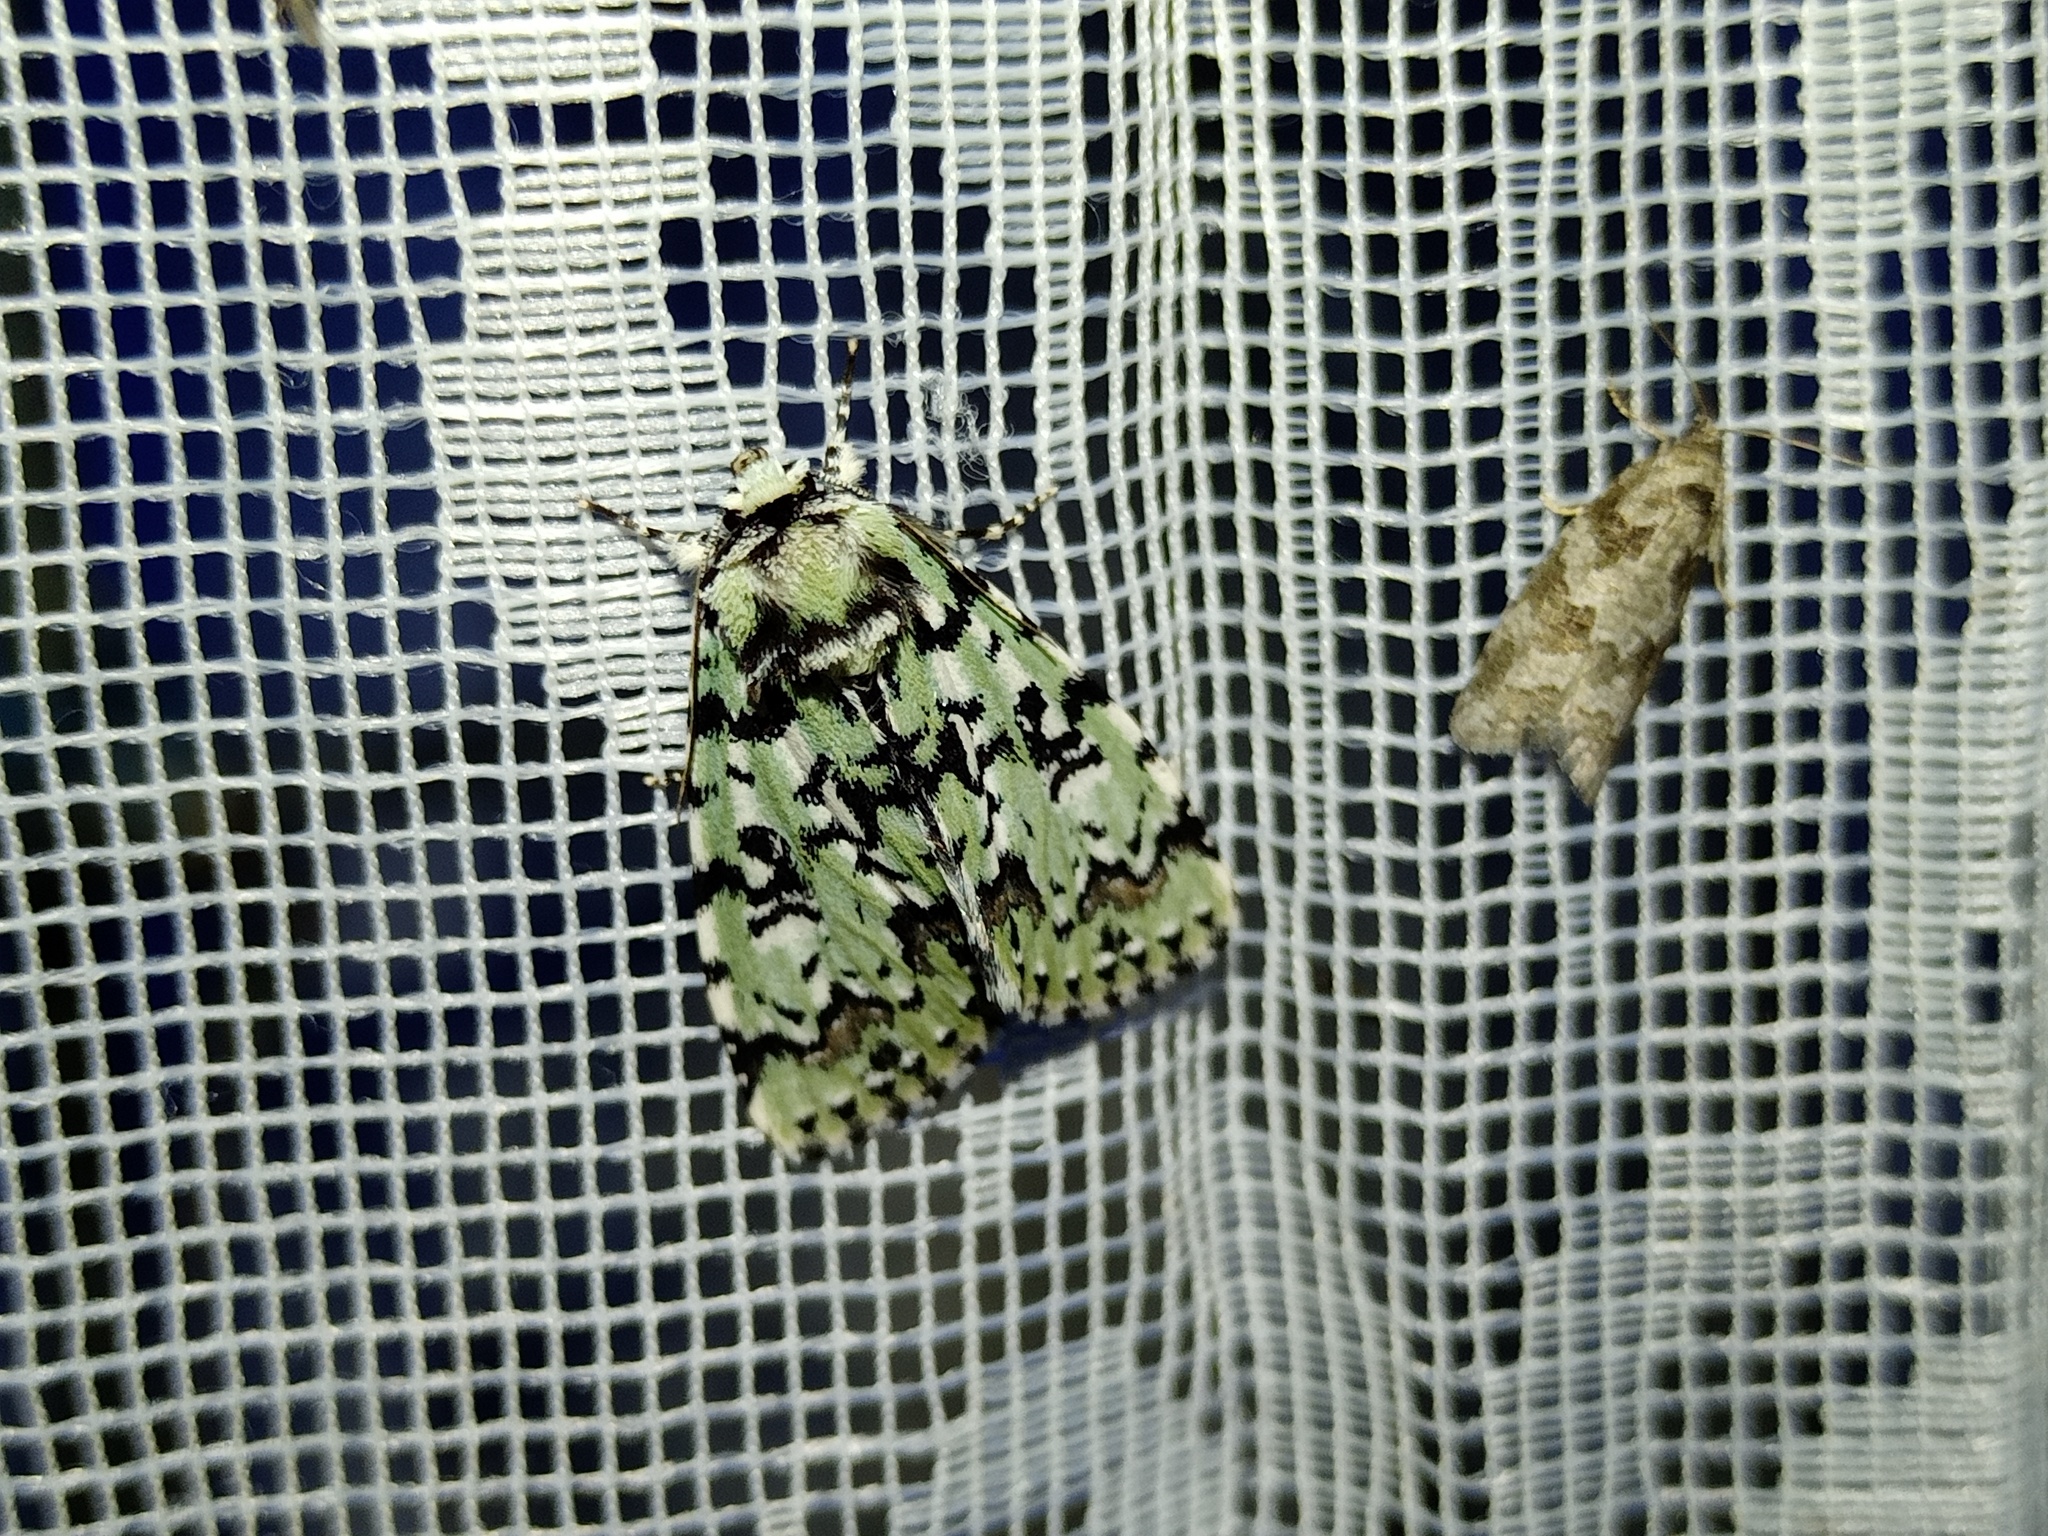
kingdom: Animalia
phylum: Arthropoda
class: Insecta
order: Lepidoptera
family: Noctuidae
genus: Moma
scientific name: Moma alpium
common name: Scarce merveille du jour
